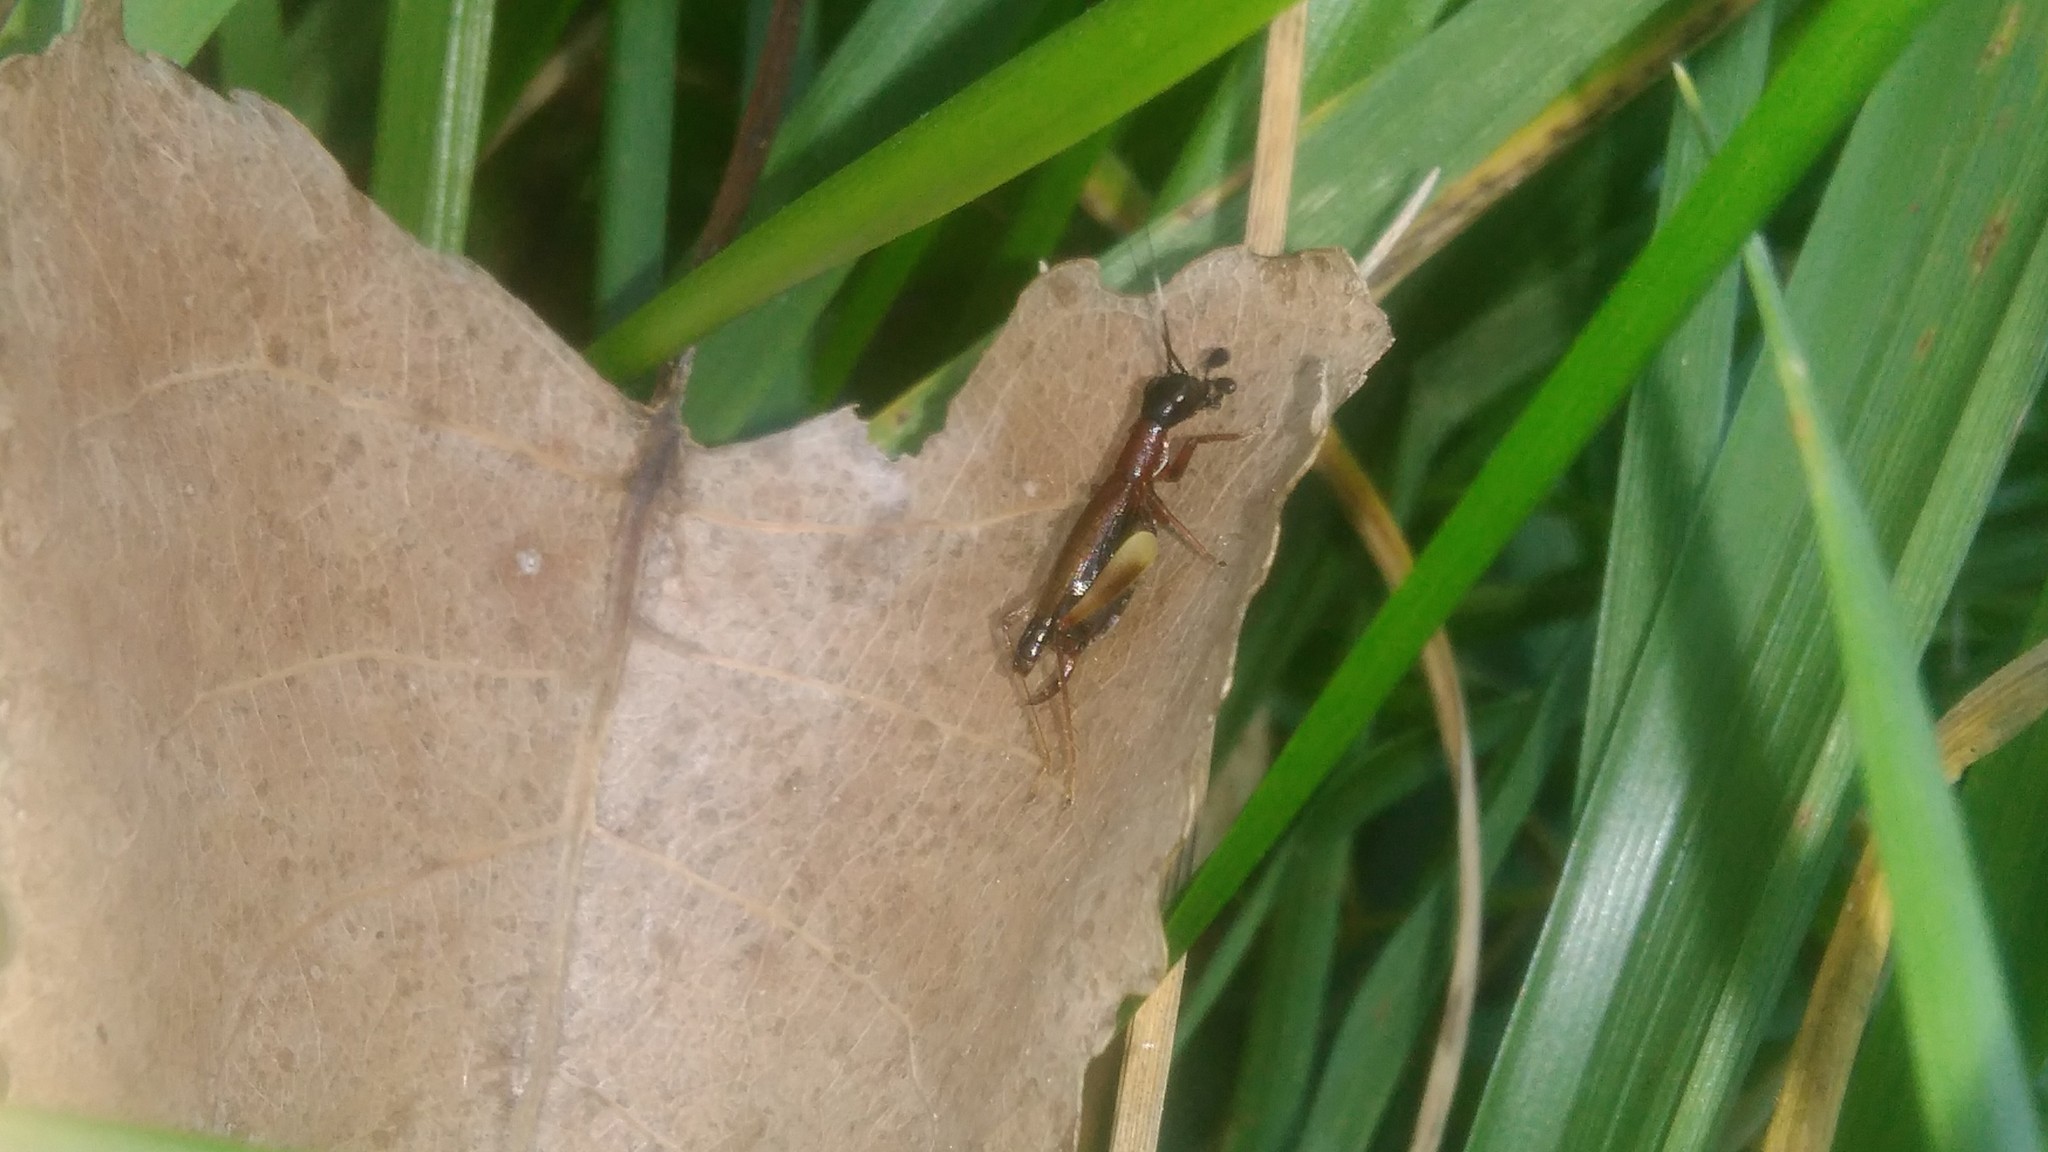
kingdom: Animalia
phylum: Arthropoda
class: Insecta
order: Orthoptera
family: Trigonidiidae
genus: Cranistus
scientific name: Cranistus colliurides
